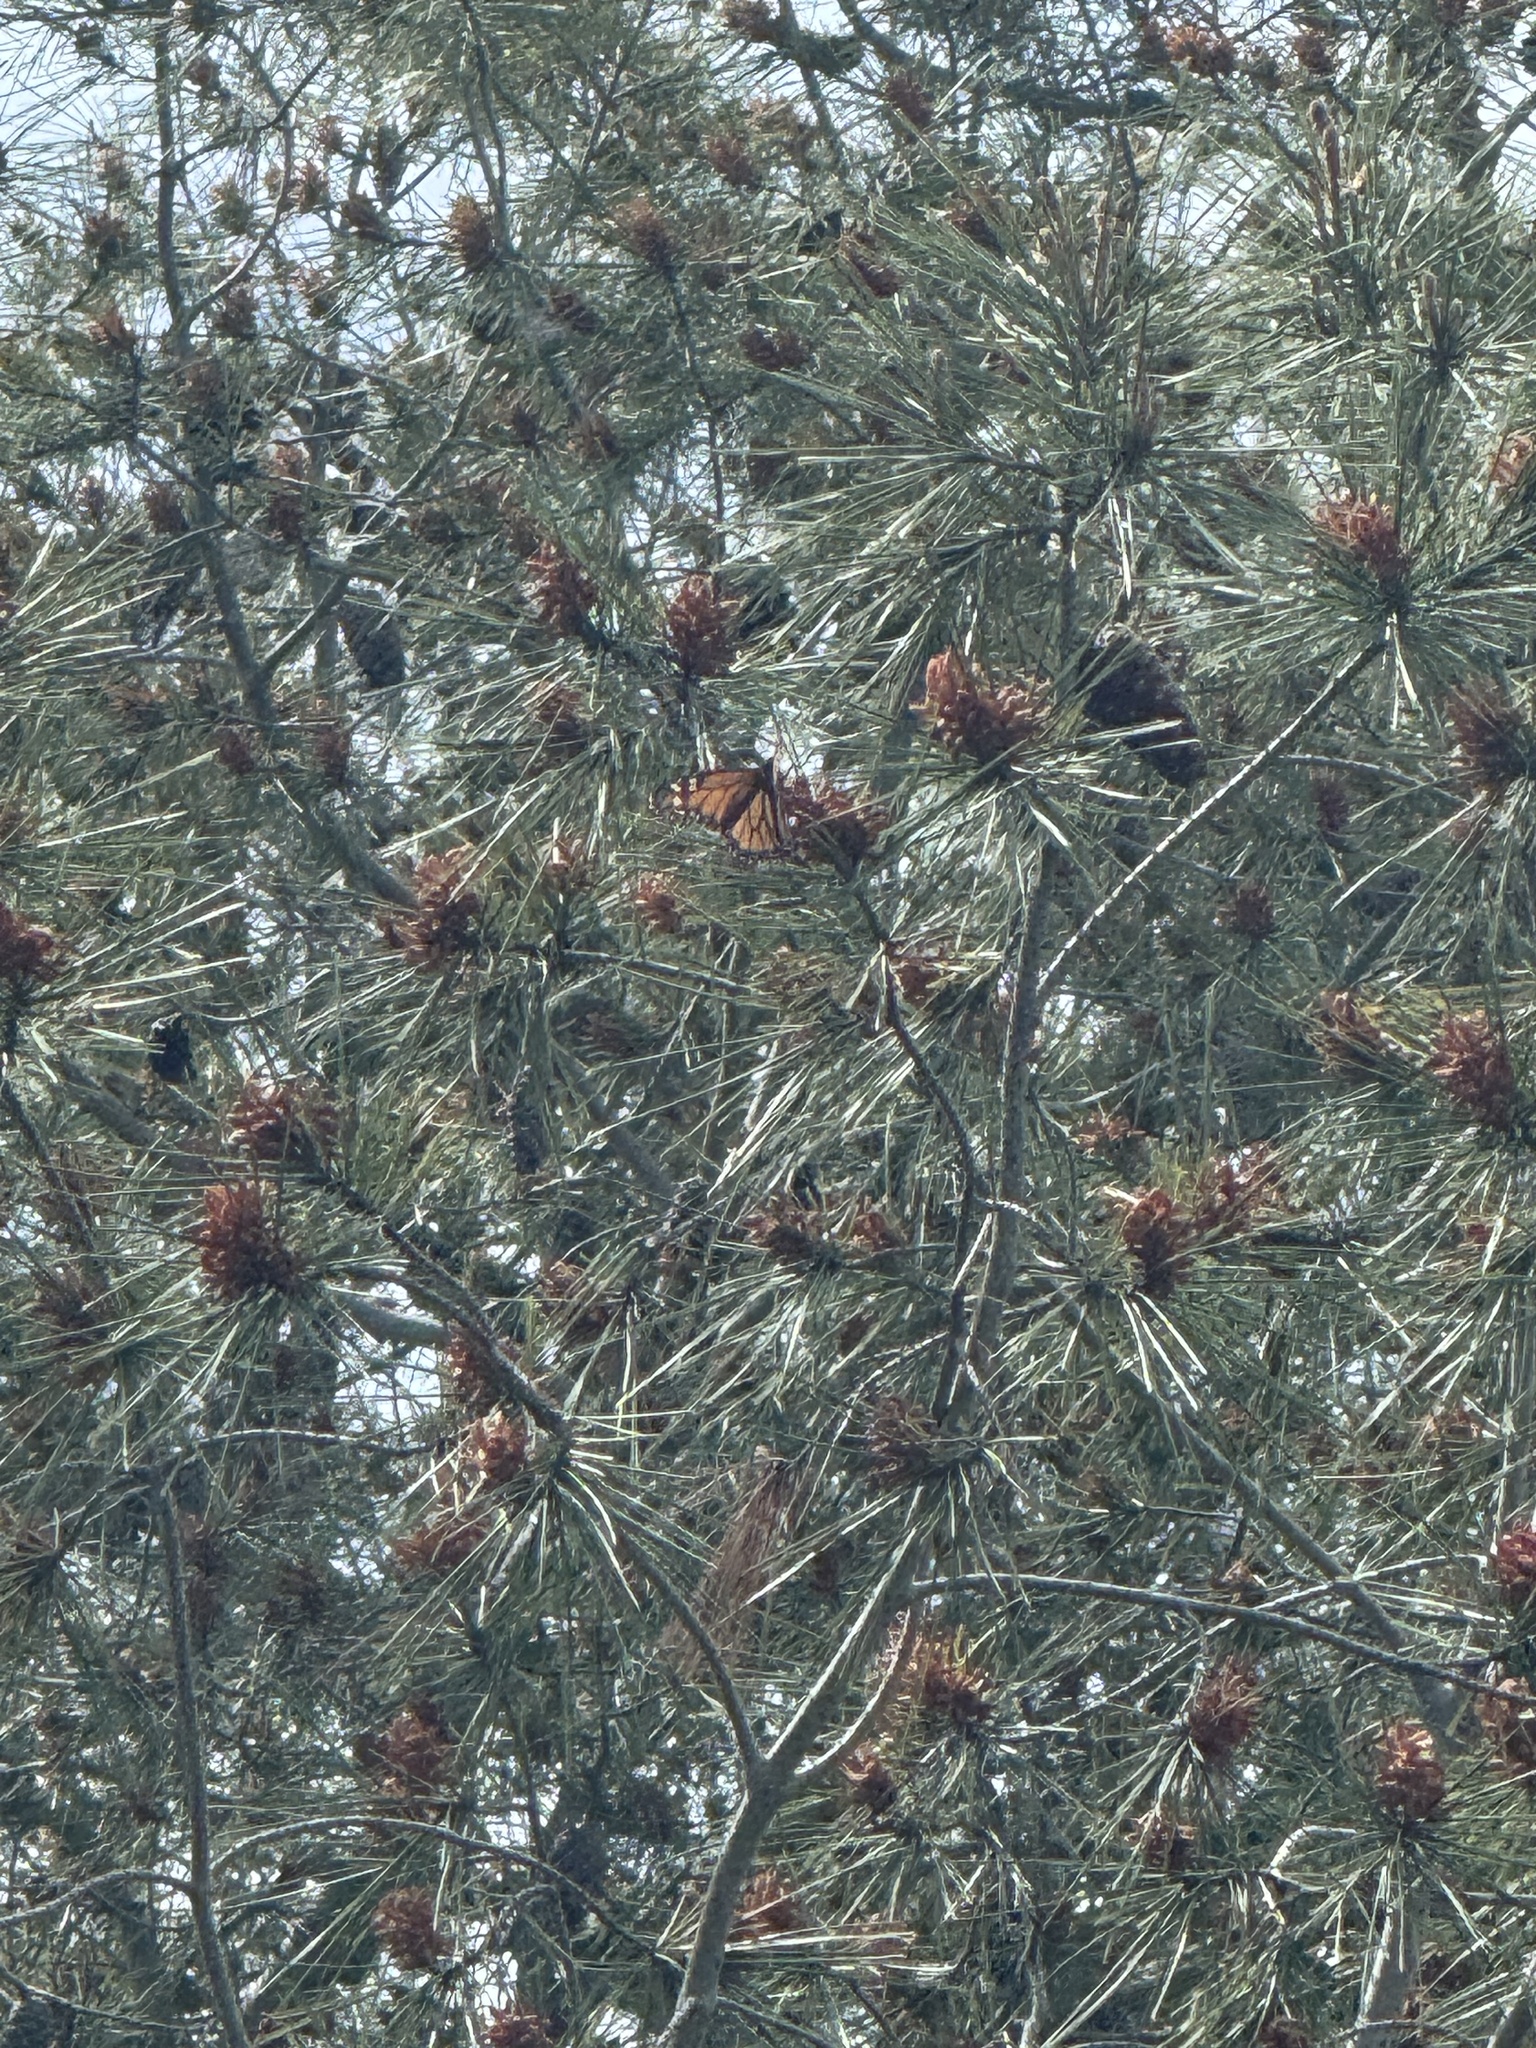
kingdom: Animalia
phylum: Arthropoda
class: Insecta
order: Lepidoptera
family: Nymphalidae
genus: Danaus
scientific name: Danaus plexippus
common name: Monarch
